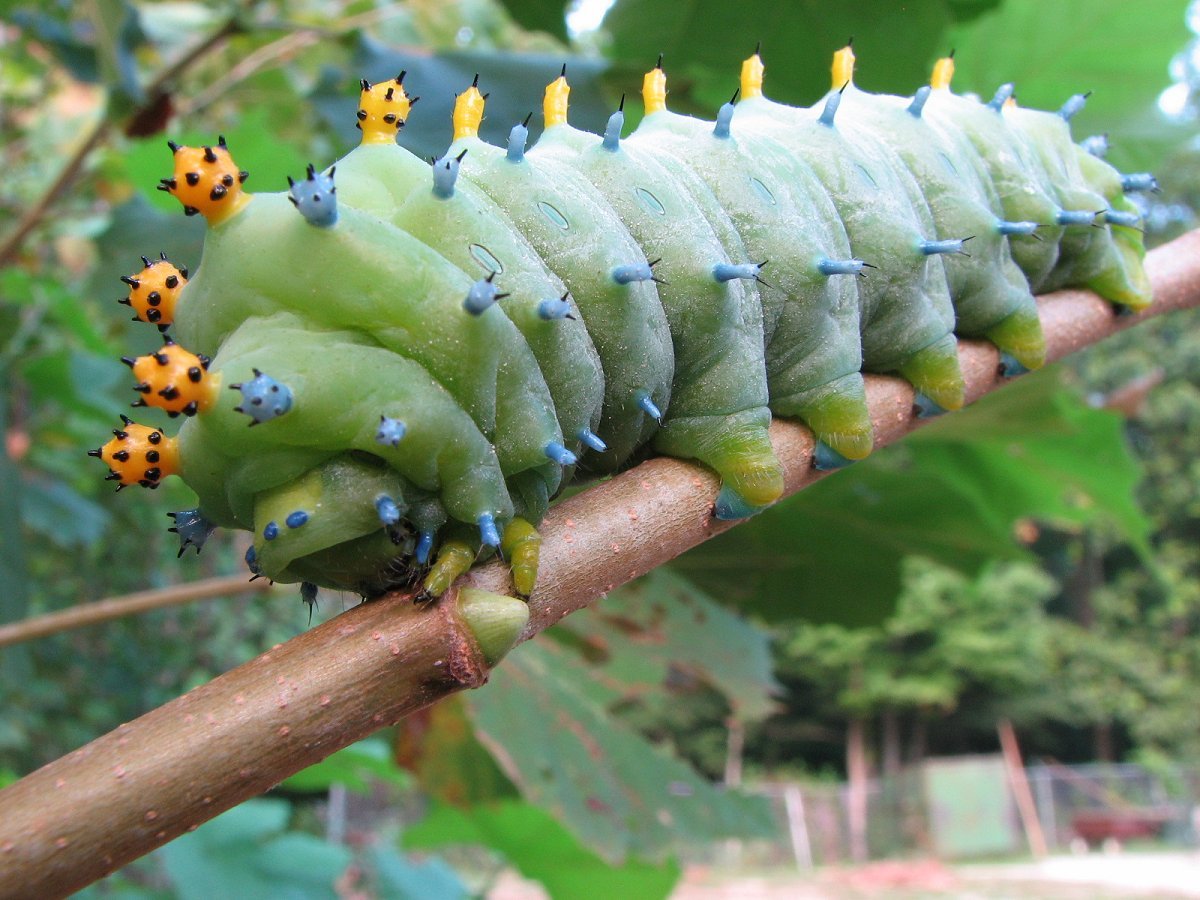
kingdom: Animalia
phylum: Arthropoda
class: Insecta
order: Lepidoptera
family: Saturniidae
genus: Hyalophora
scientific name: Hyalophora cecropia
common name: Cecropia silkmoth
